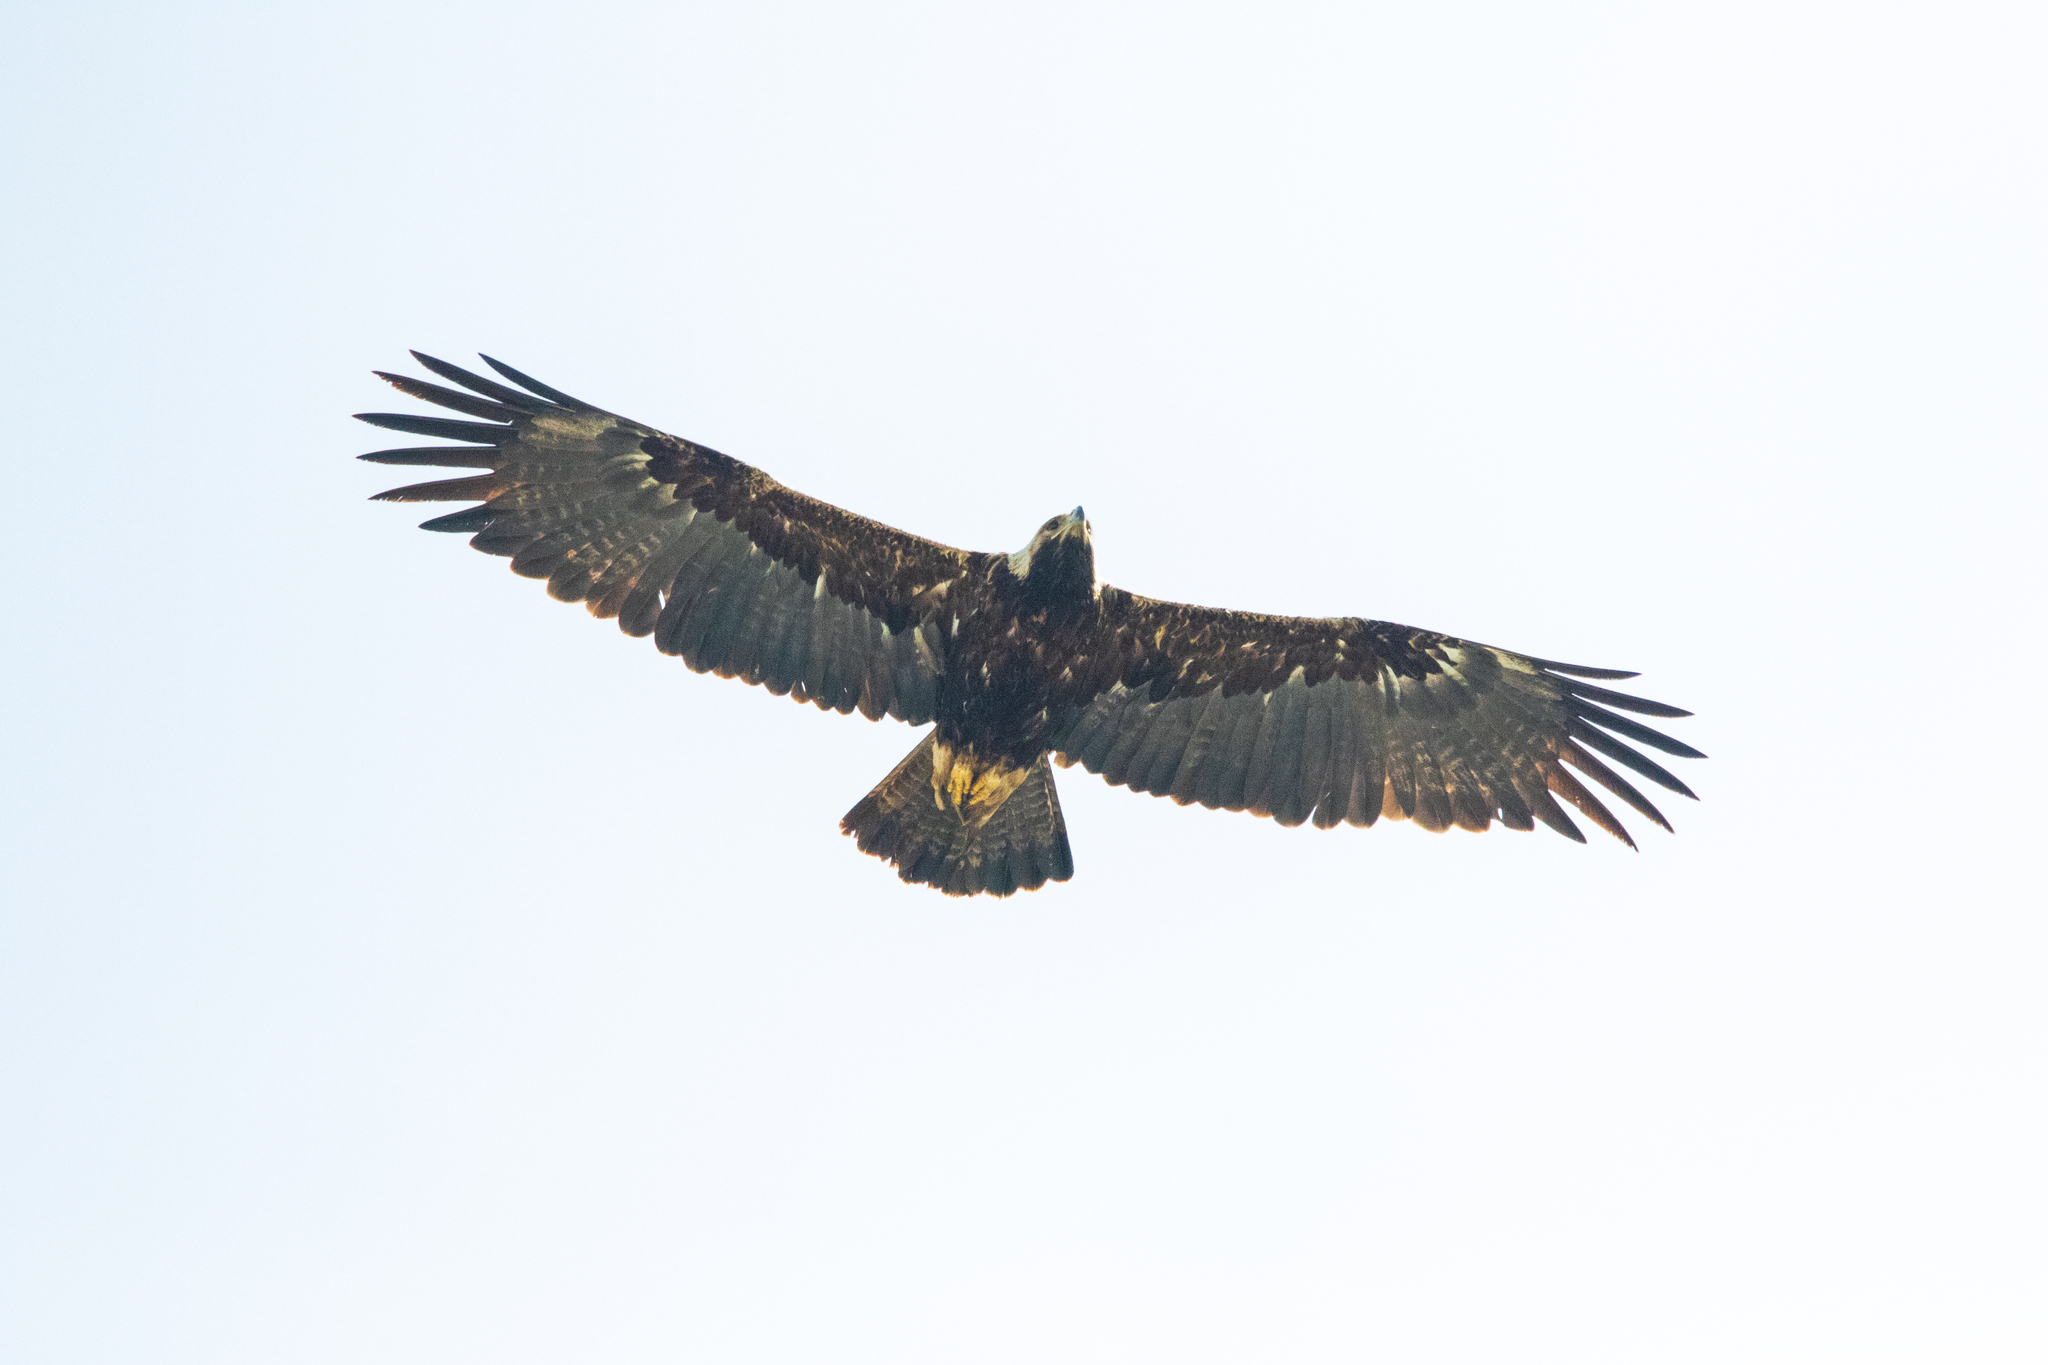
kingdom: Animalia
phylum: Chordata
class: Aves
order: Accipitriformes
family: Accipitridae
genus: Aquila
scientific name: Aquila heliaca
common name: Eastern imperial eagle
